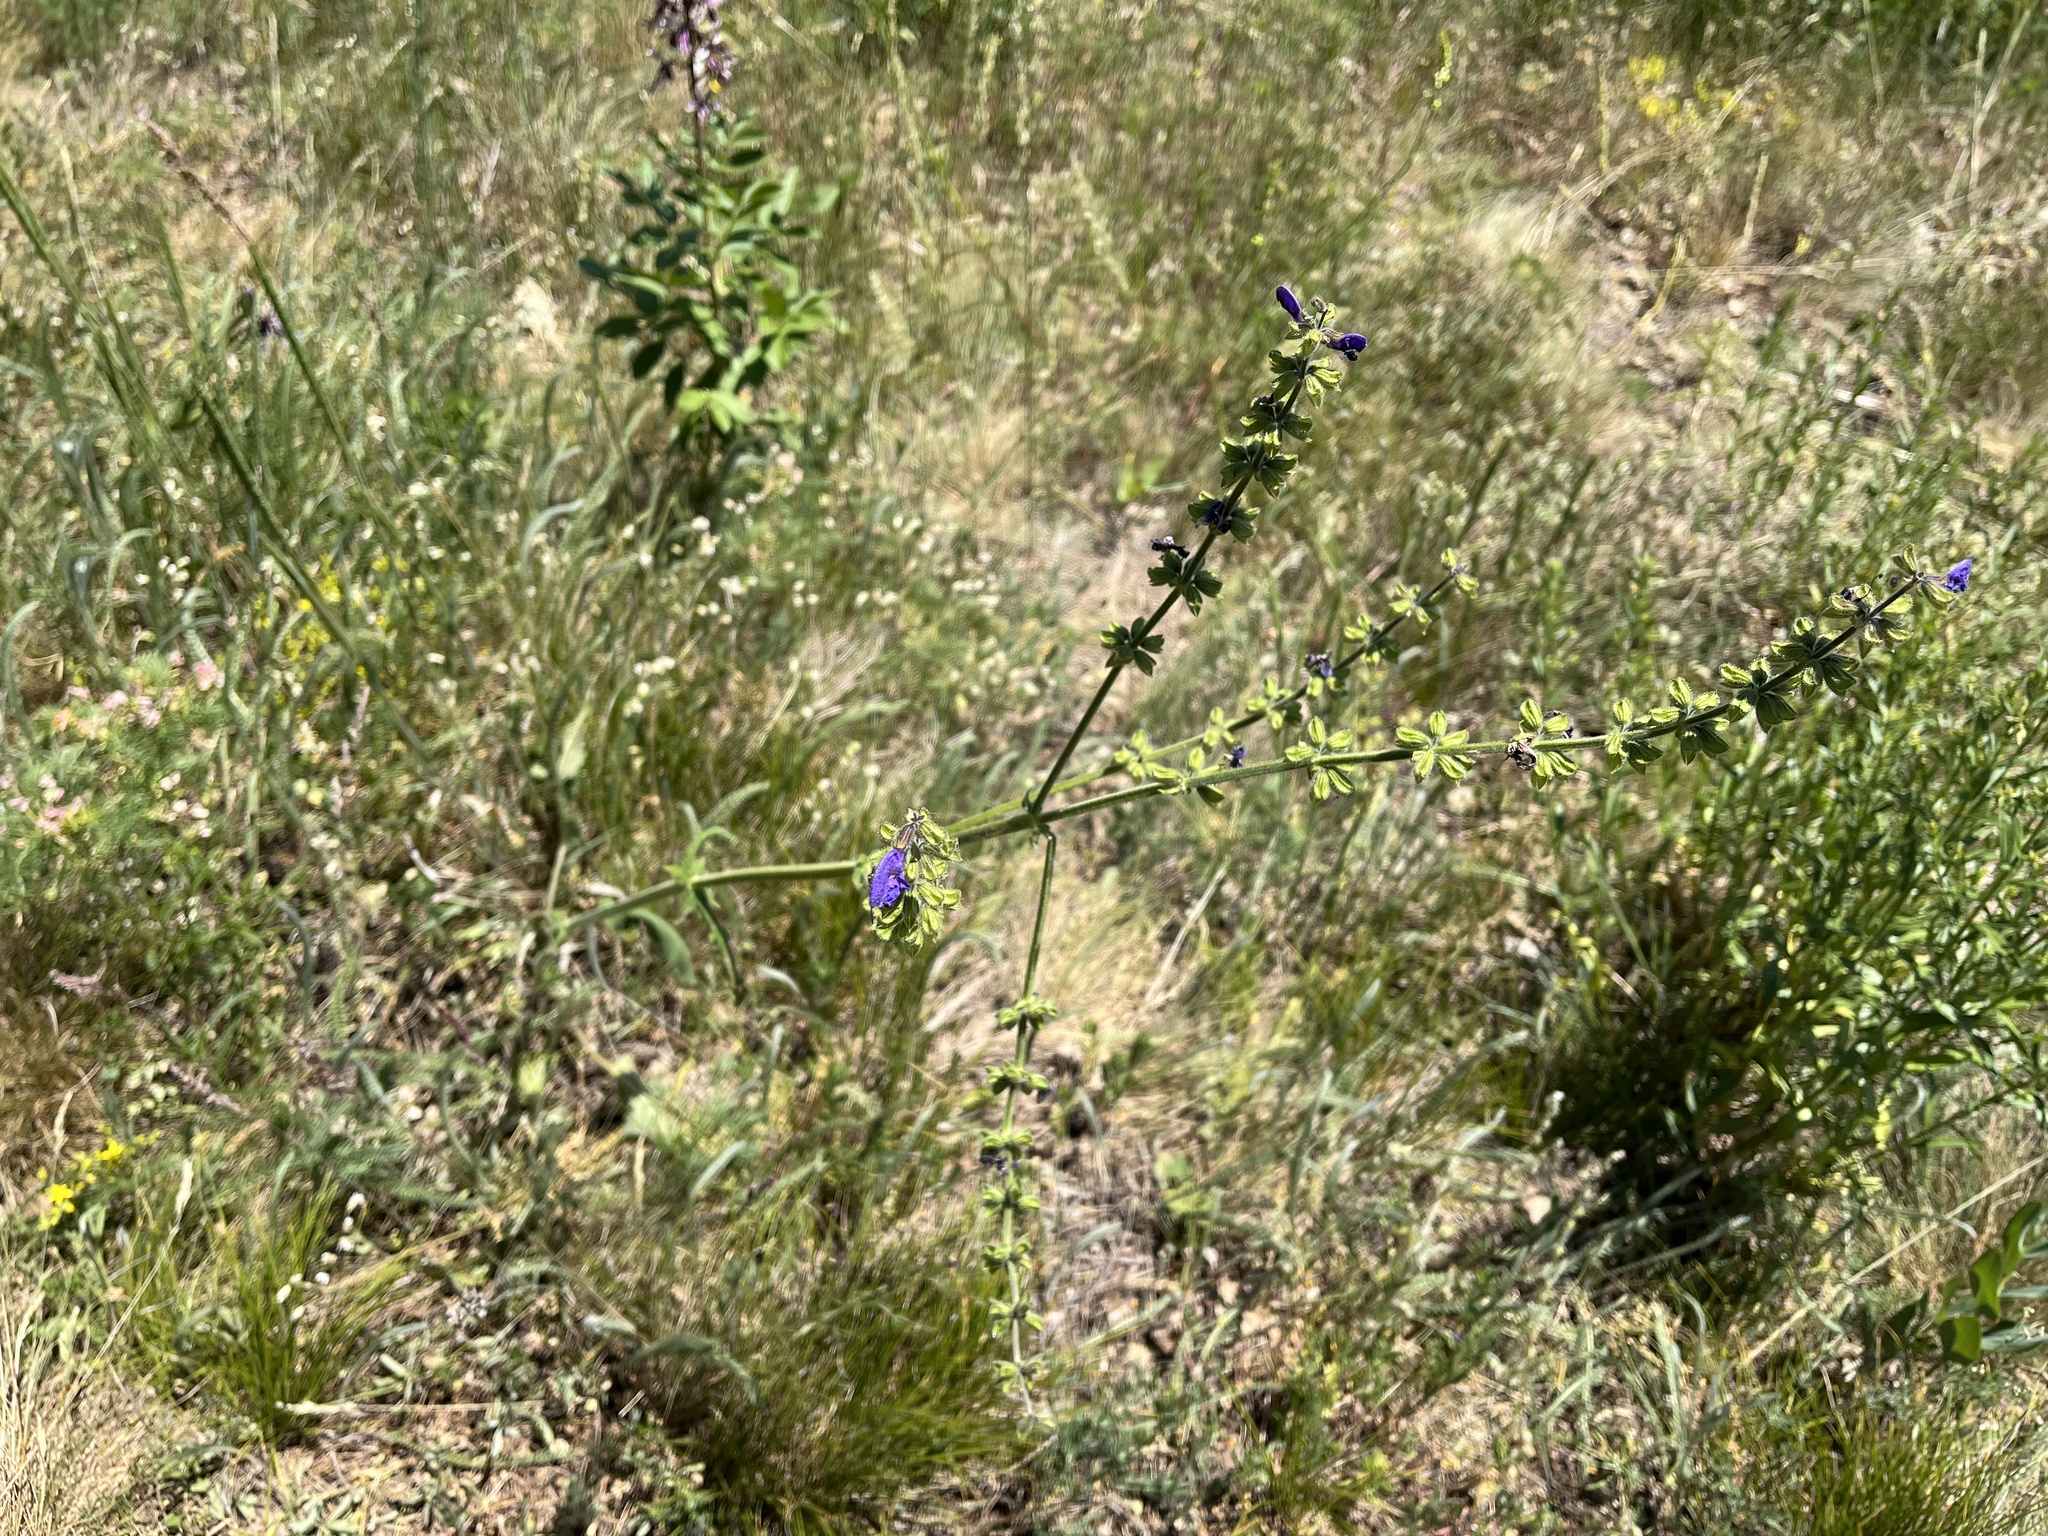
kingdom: Plantae
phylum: Tracheophyta
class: Magnoliopsida
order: Lamiales
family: Lamiaceae
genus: Salvia
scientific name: Salvia pratensis
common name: Meadow sage
